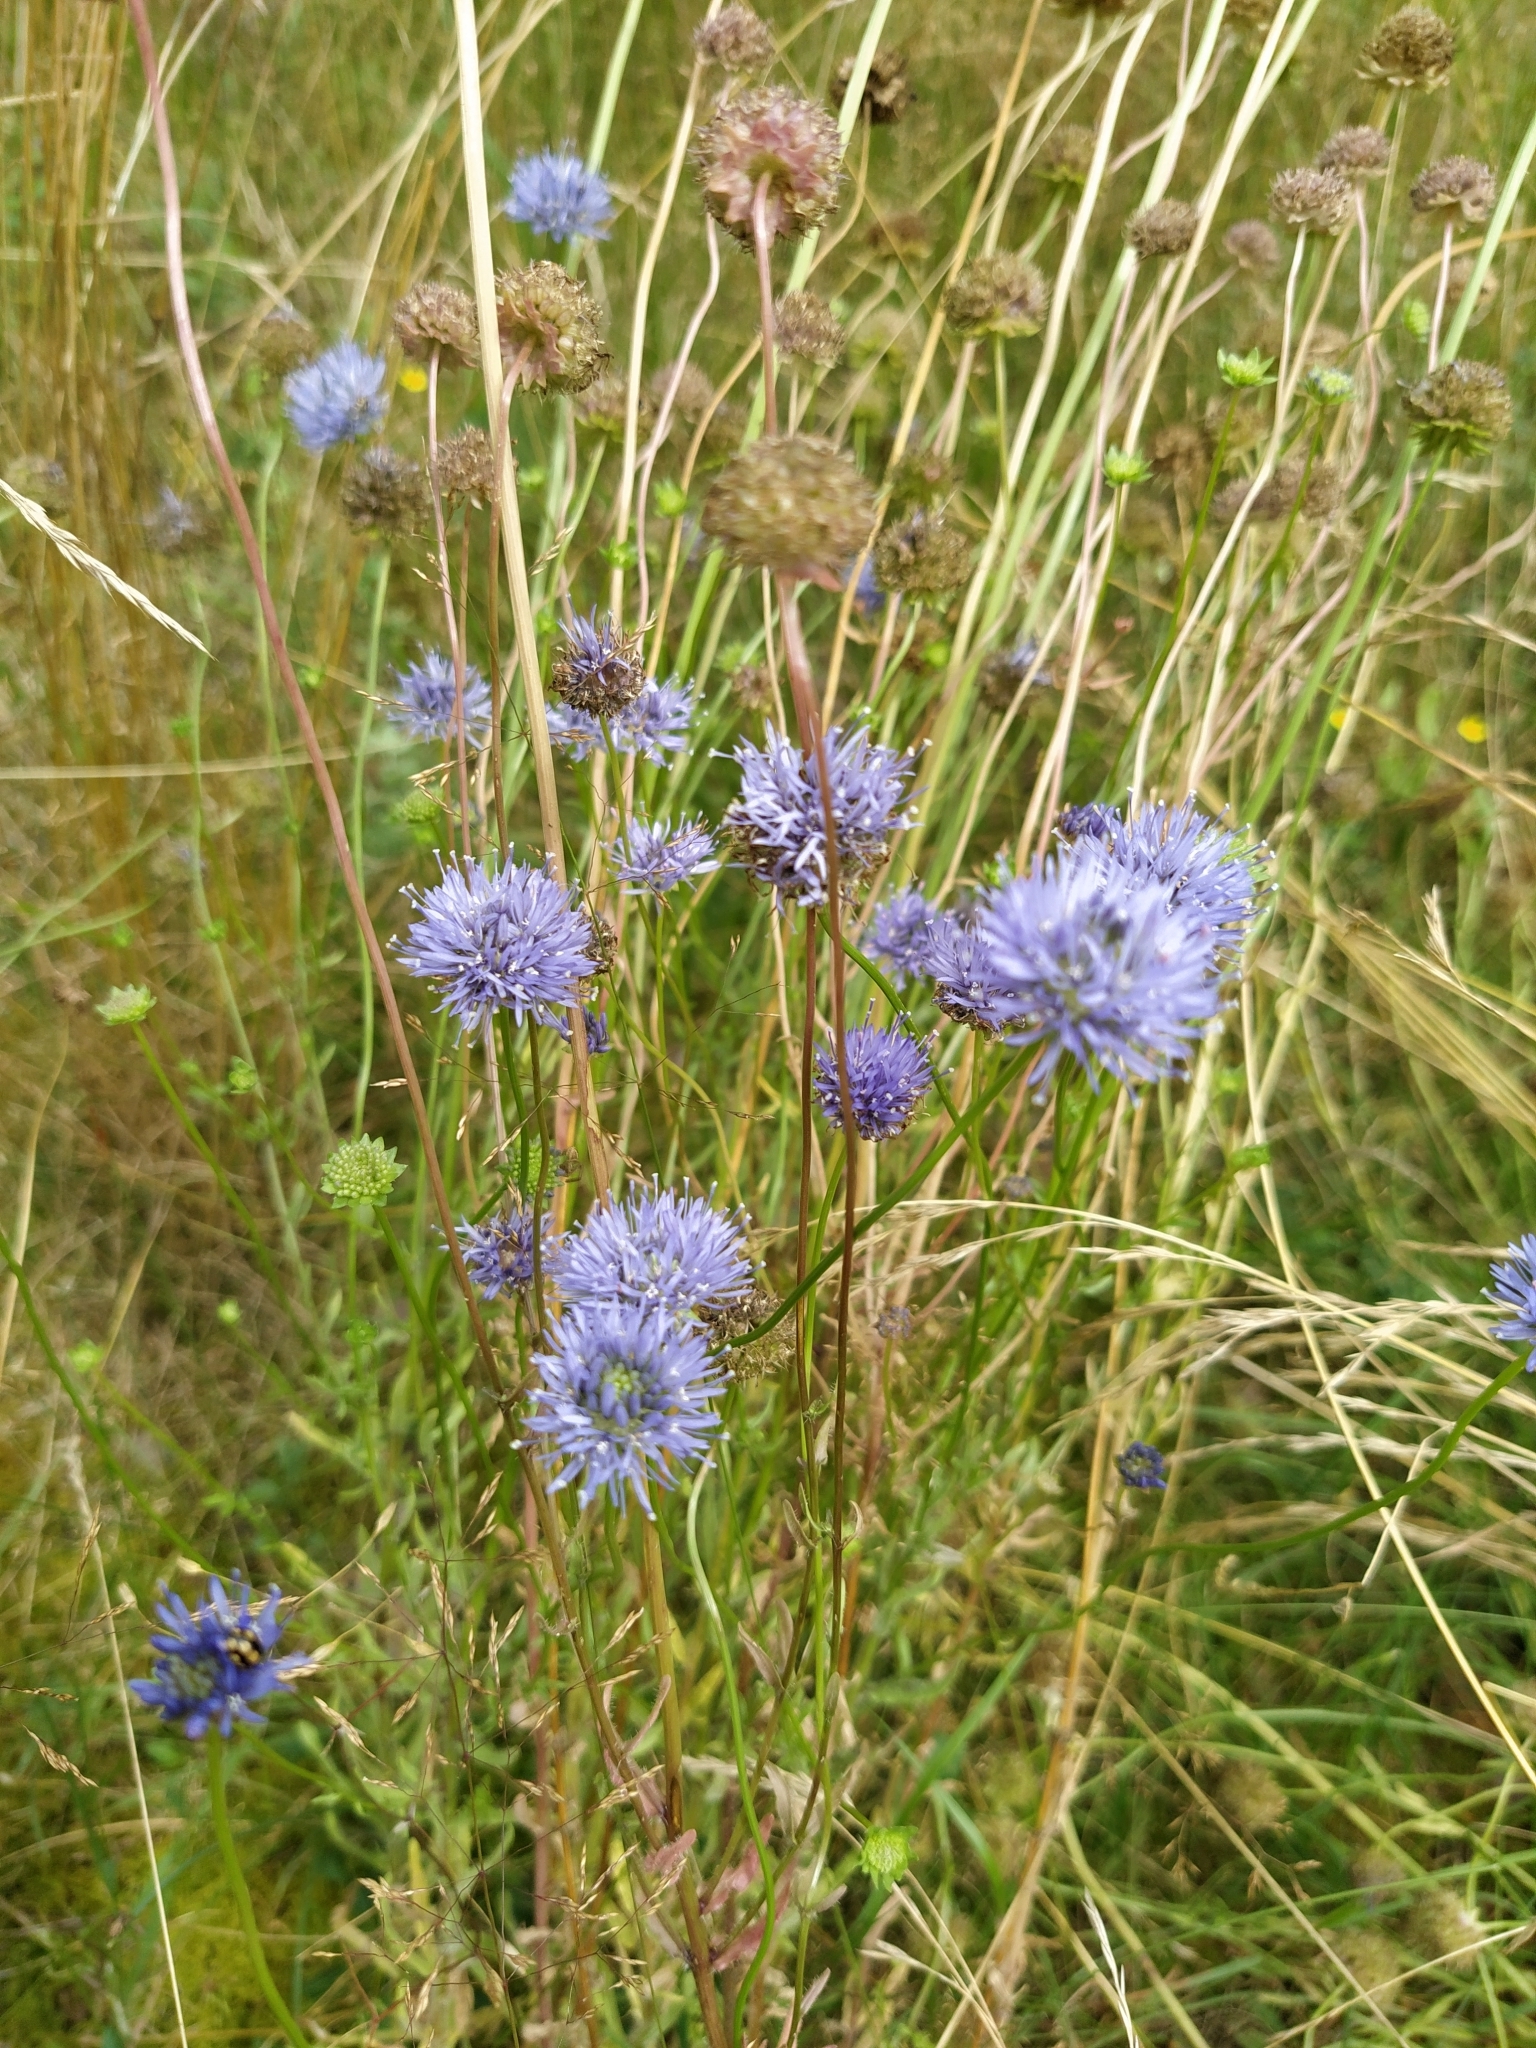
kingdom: Plantae
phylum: Tracheophyta
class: Magnoliopsida
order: Asterales
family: Campanulaceae
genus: Jasione
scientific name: Jasione montana
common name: Sheep's-bit
